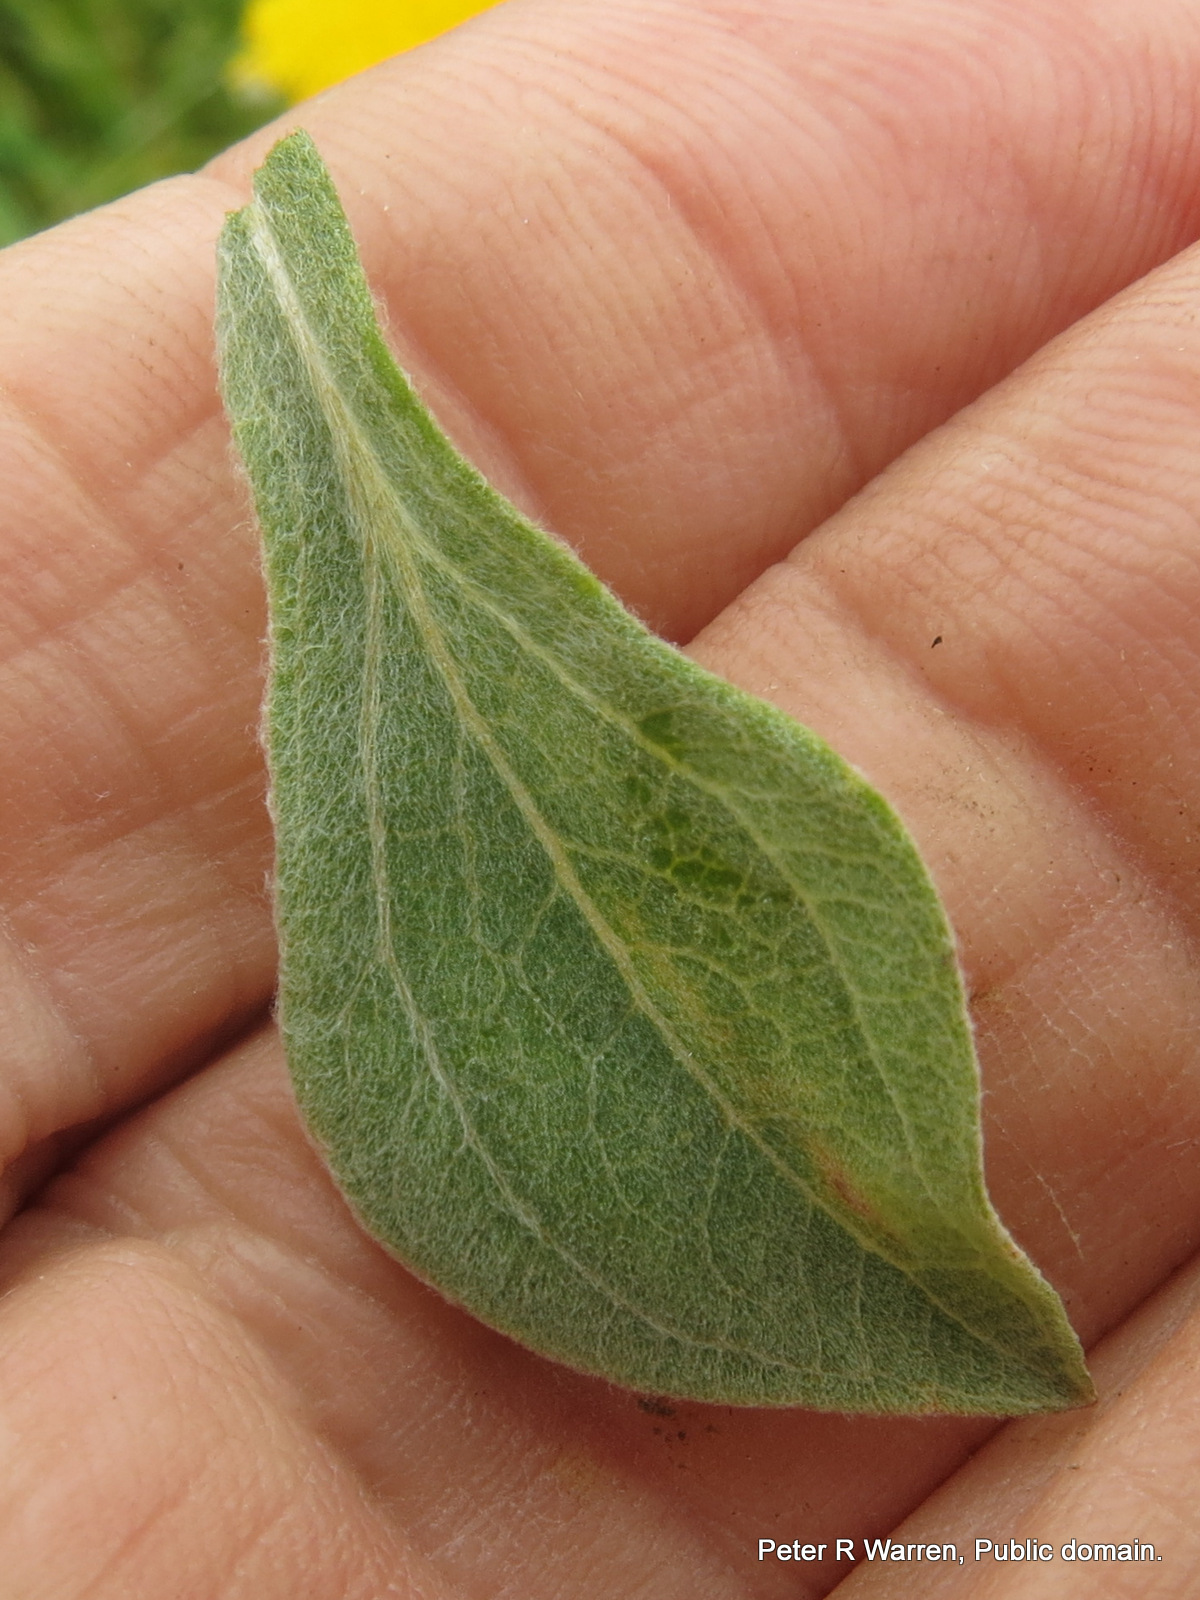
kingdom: Plantae
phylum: Tracheophyta
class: Magnoliopsida
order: Asterales
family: Asteraceae
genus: Helichrysum
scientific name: Helichrysum umbraculigerum
